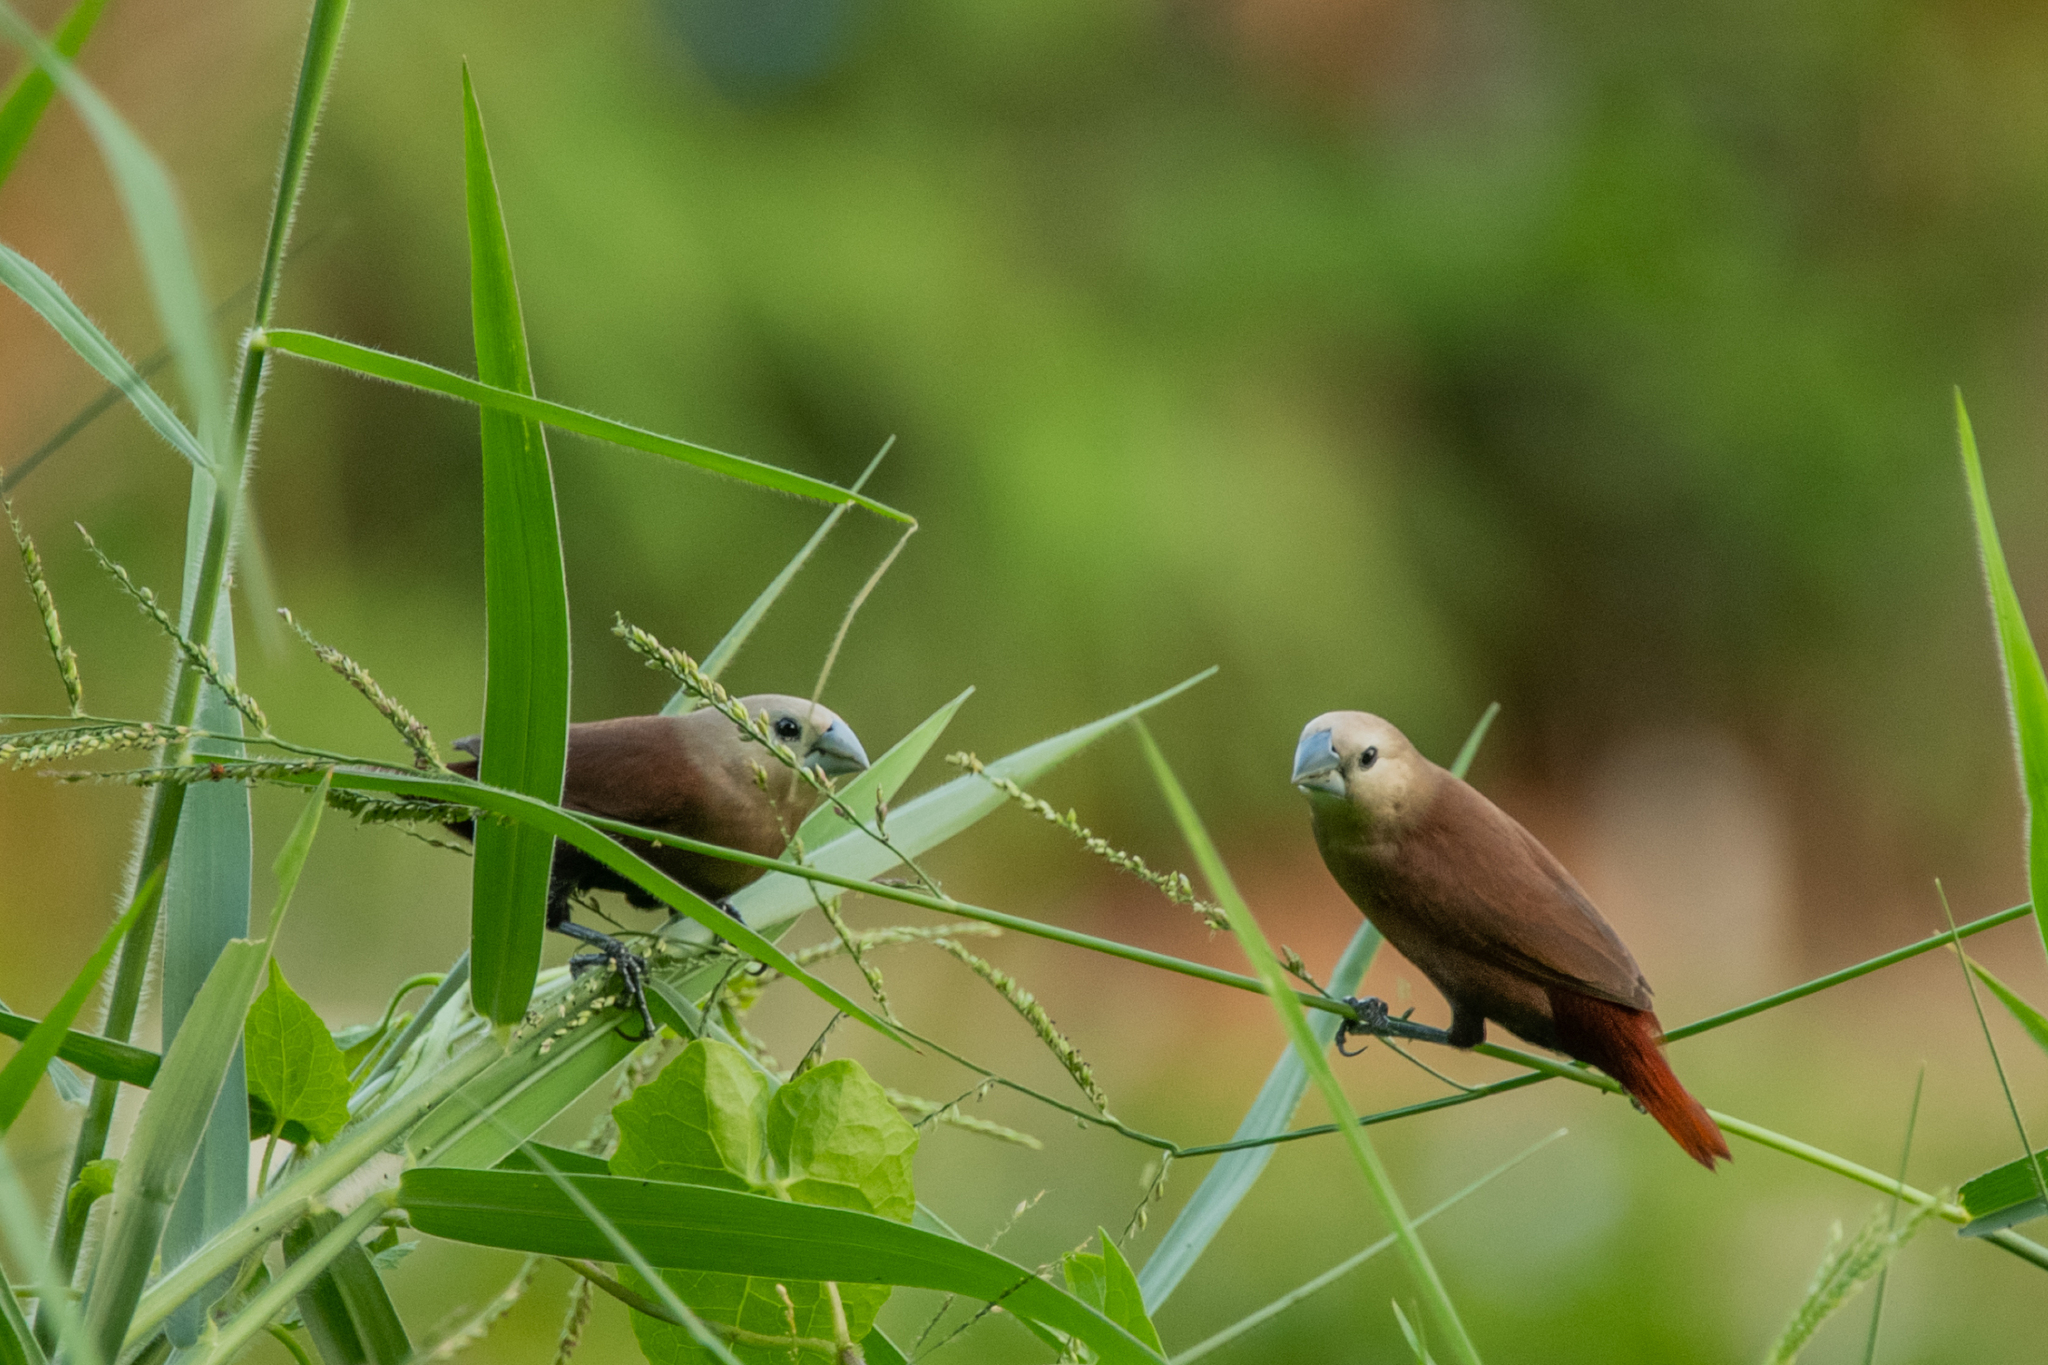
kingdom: Animalia
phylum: Chordata
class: Aves
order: Passeriformes
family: Estrildidae
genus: Lonchura
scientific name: Lonchura maja
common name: White-headed munia
